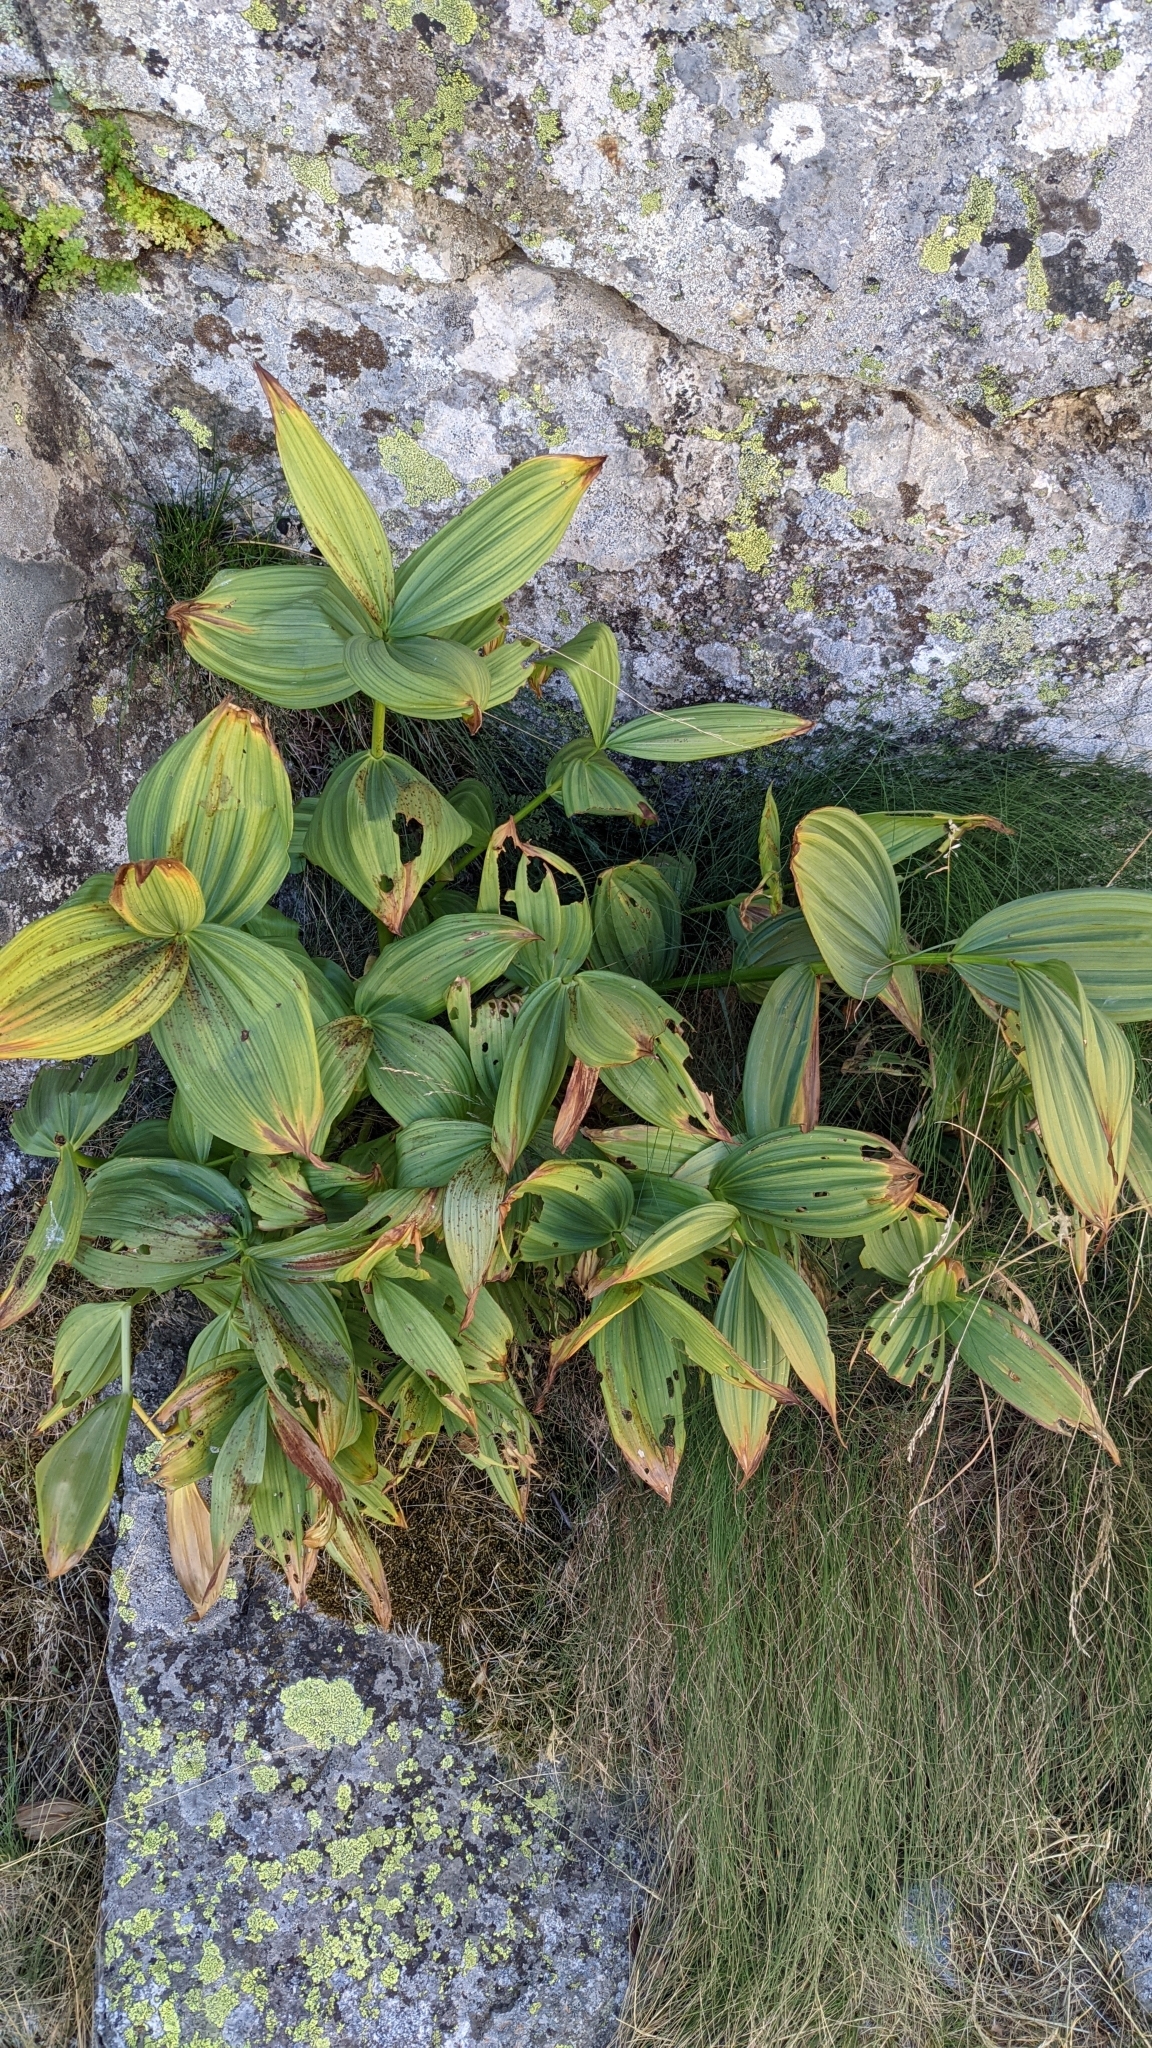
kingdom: Plantae
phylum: Tracheophyta
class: Liliopsida
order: Liliales
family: Melanthiaceae
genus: Veratrum
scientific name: Veratrum album
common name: White veratrum
